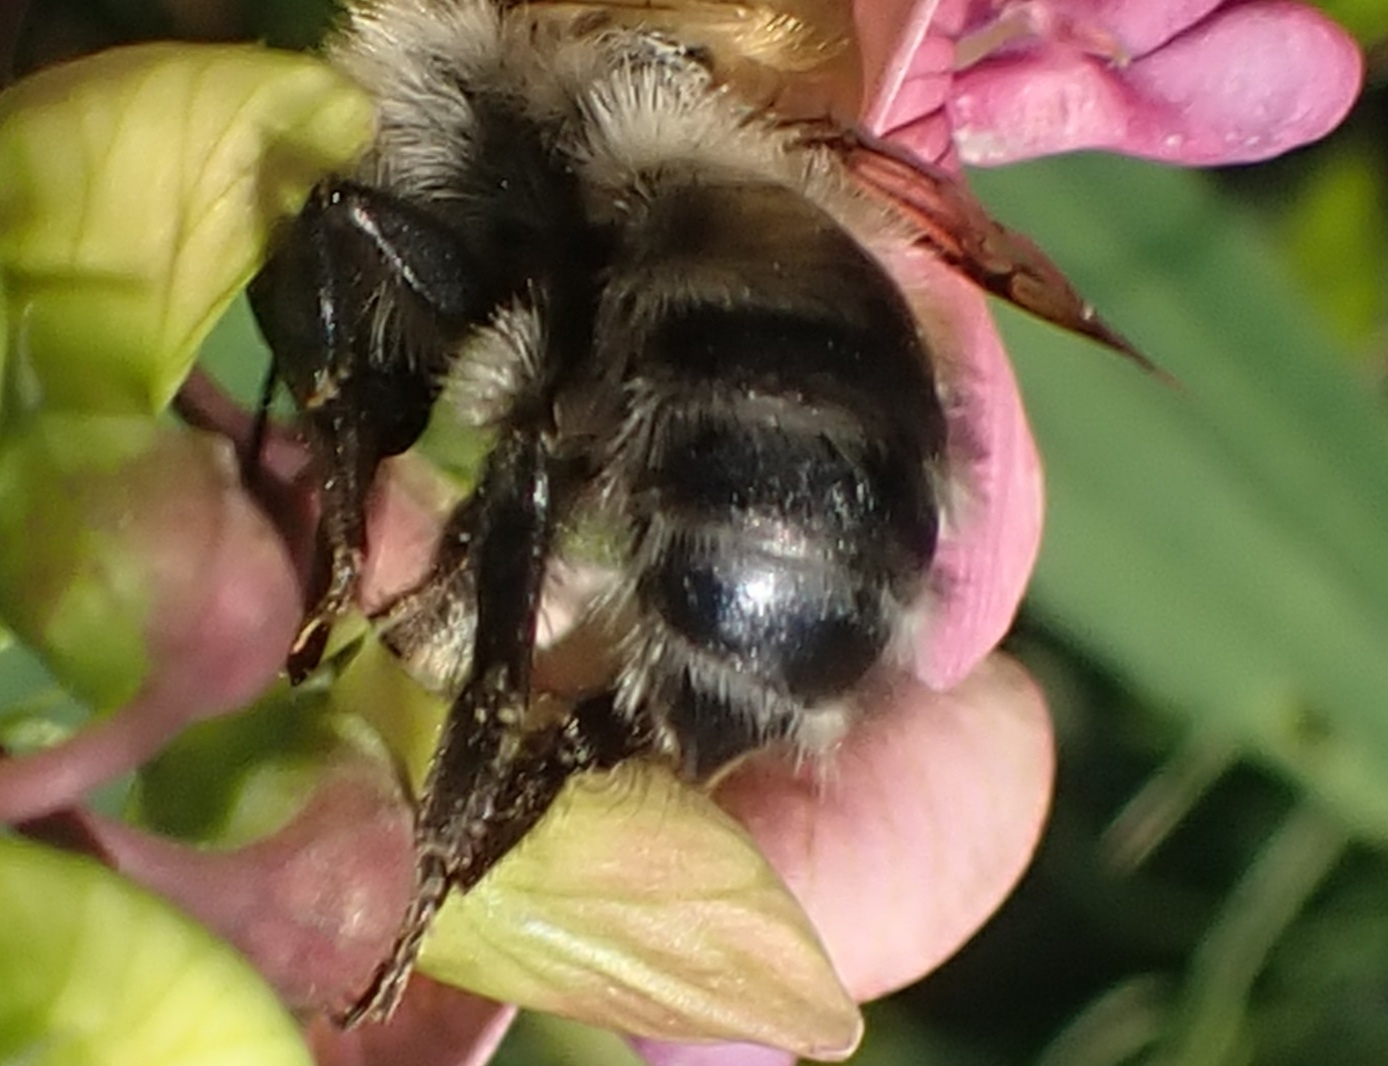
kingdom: Animalia
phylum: Arthropoda
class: Insecta
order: Hymenoptera
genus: Thoracobombus
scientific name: Thoracobombus
